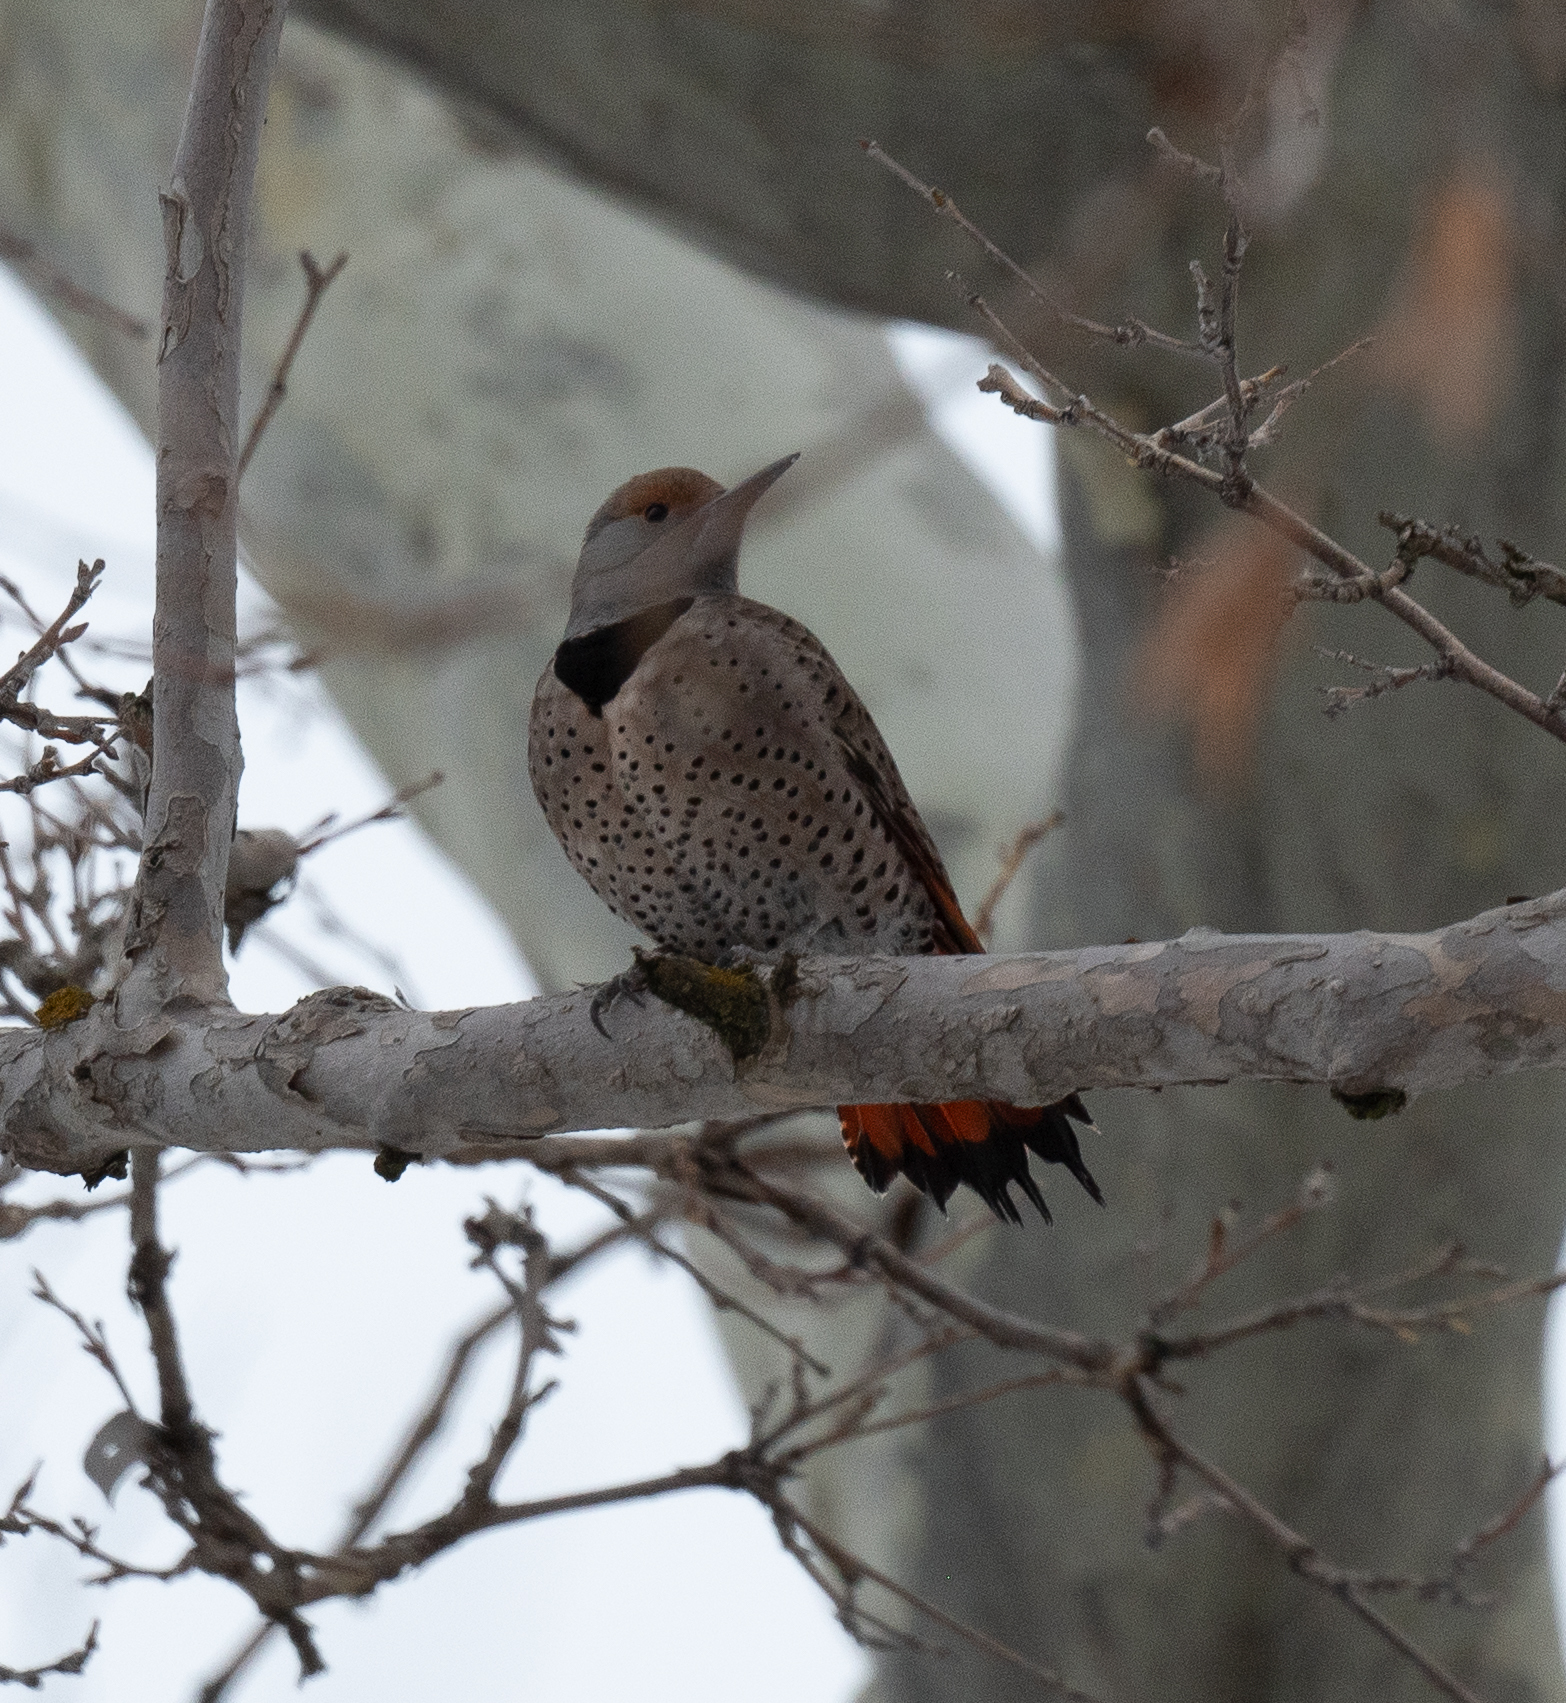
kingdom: Animalia
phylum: Chordata
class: Aves
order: Piciformes
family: Picidae
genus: Colaptes
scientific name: Colaptes auratus
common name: Northern flicker
